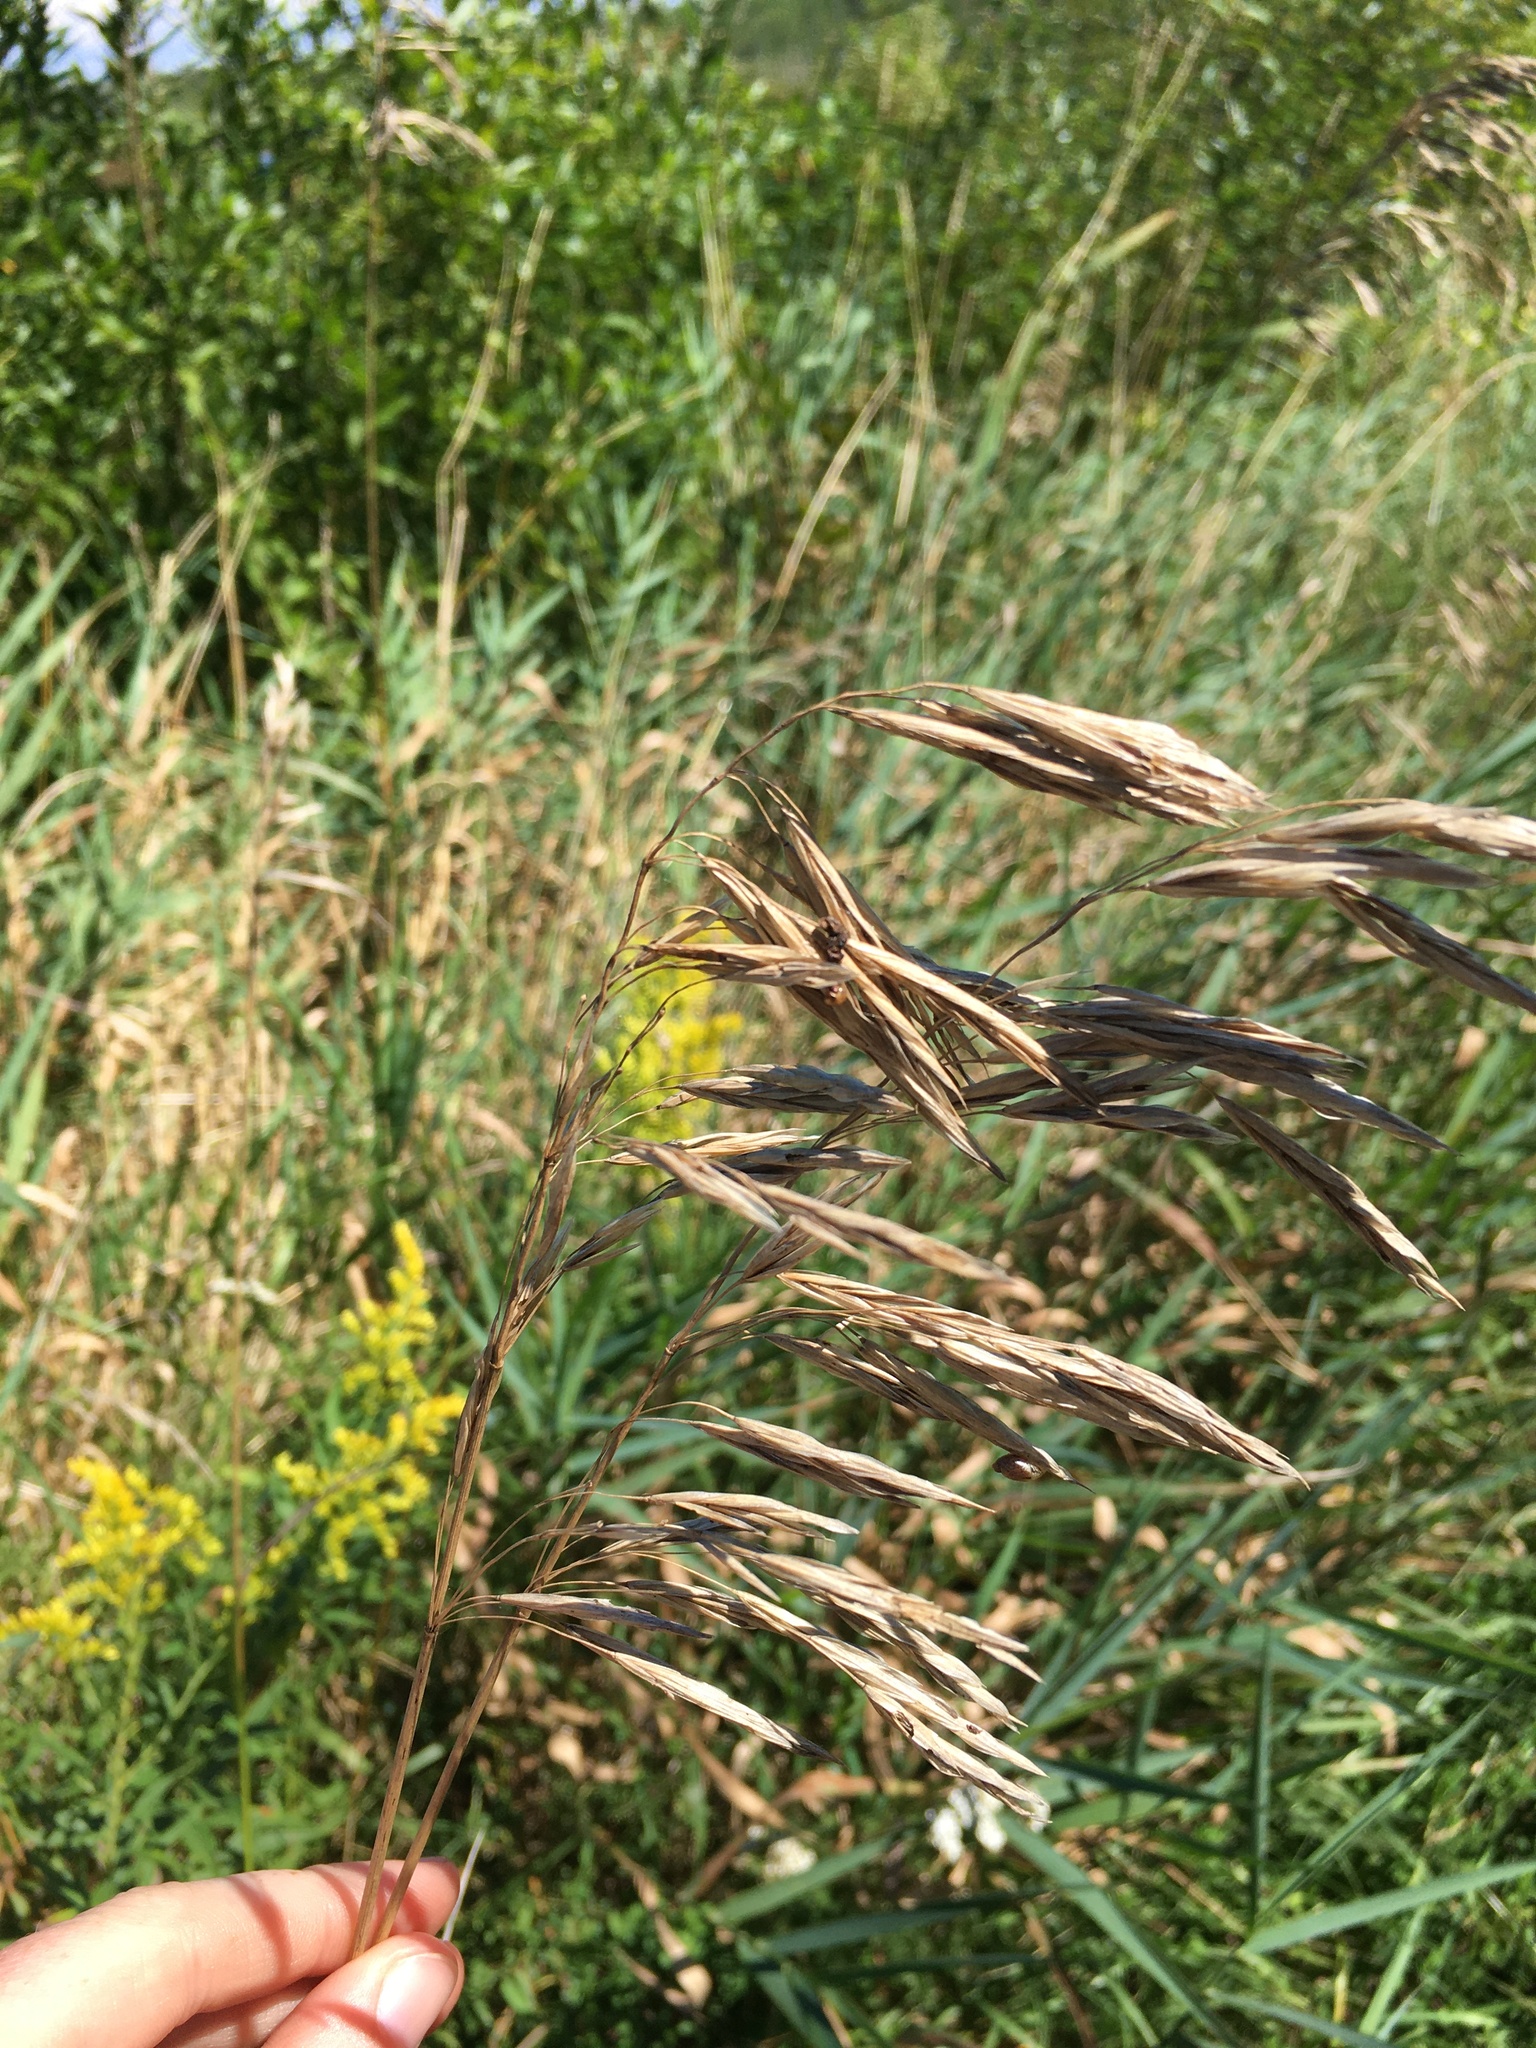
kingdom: Plantae
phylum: Tracheophyta
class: Liliopsida
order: Poales
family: Poaceae
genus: Bromus
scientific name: Bromus inermis
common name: Smooth brome
